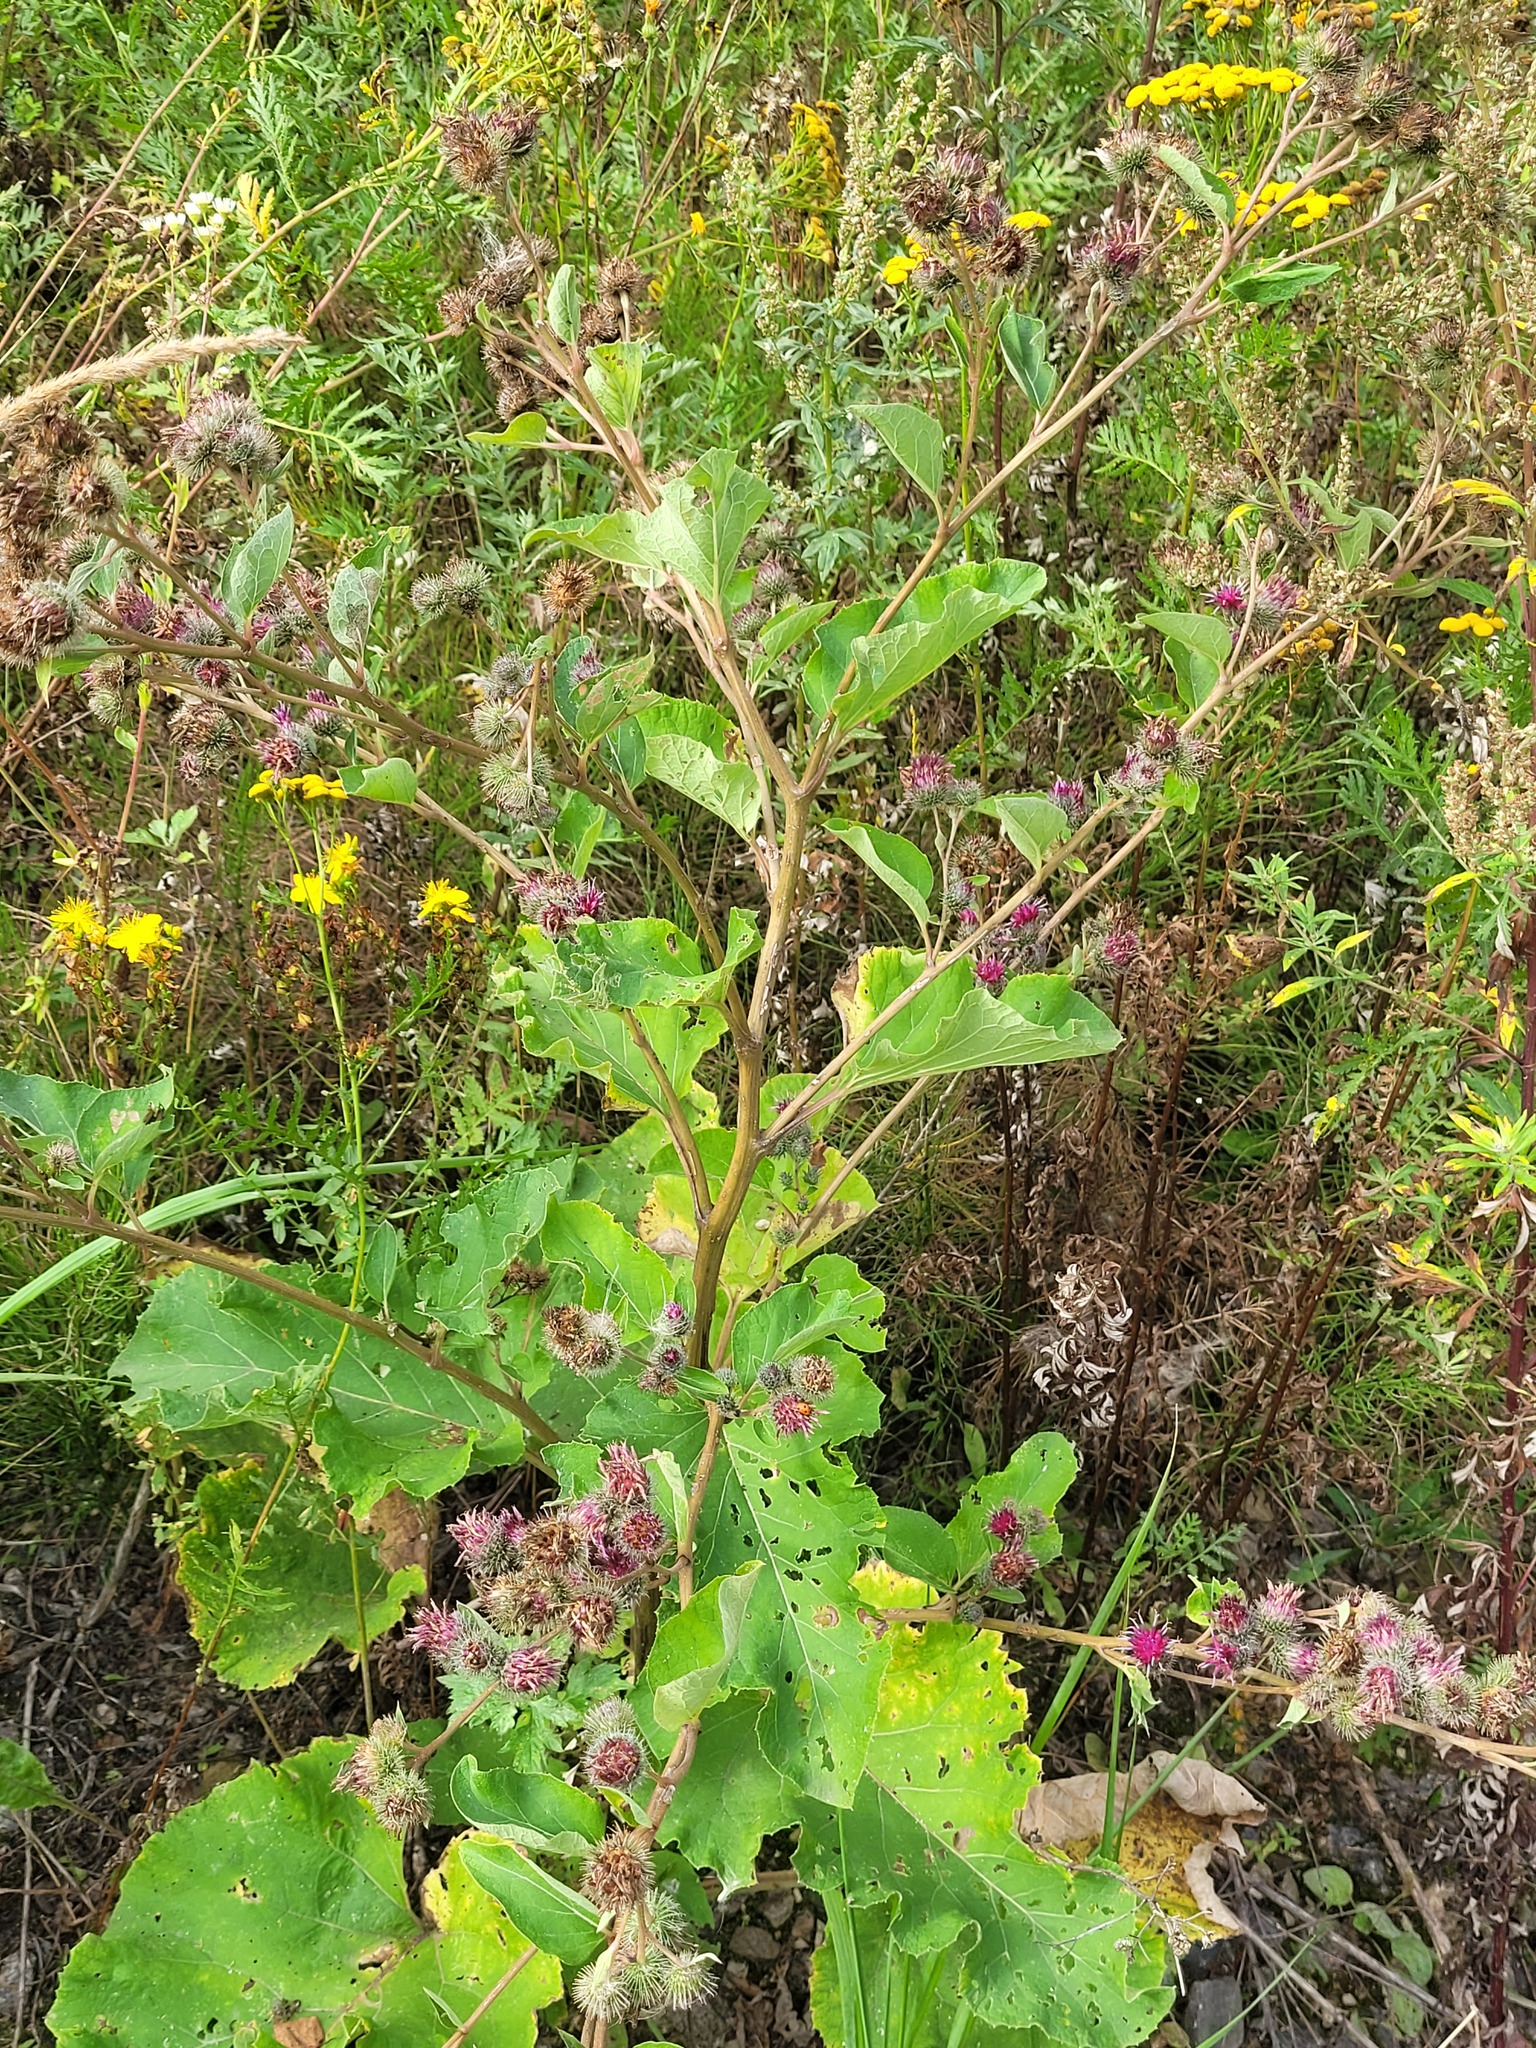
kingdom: Plantae
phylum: Tracheophyta
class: Magnoliopsida
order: Asterales
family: Asteraceae
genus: Arctium
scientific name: Arctium tomentosum
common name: Woolly burdock
